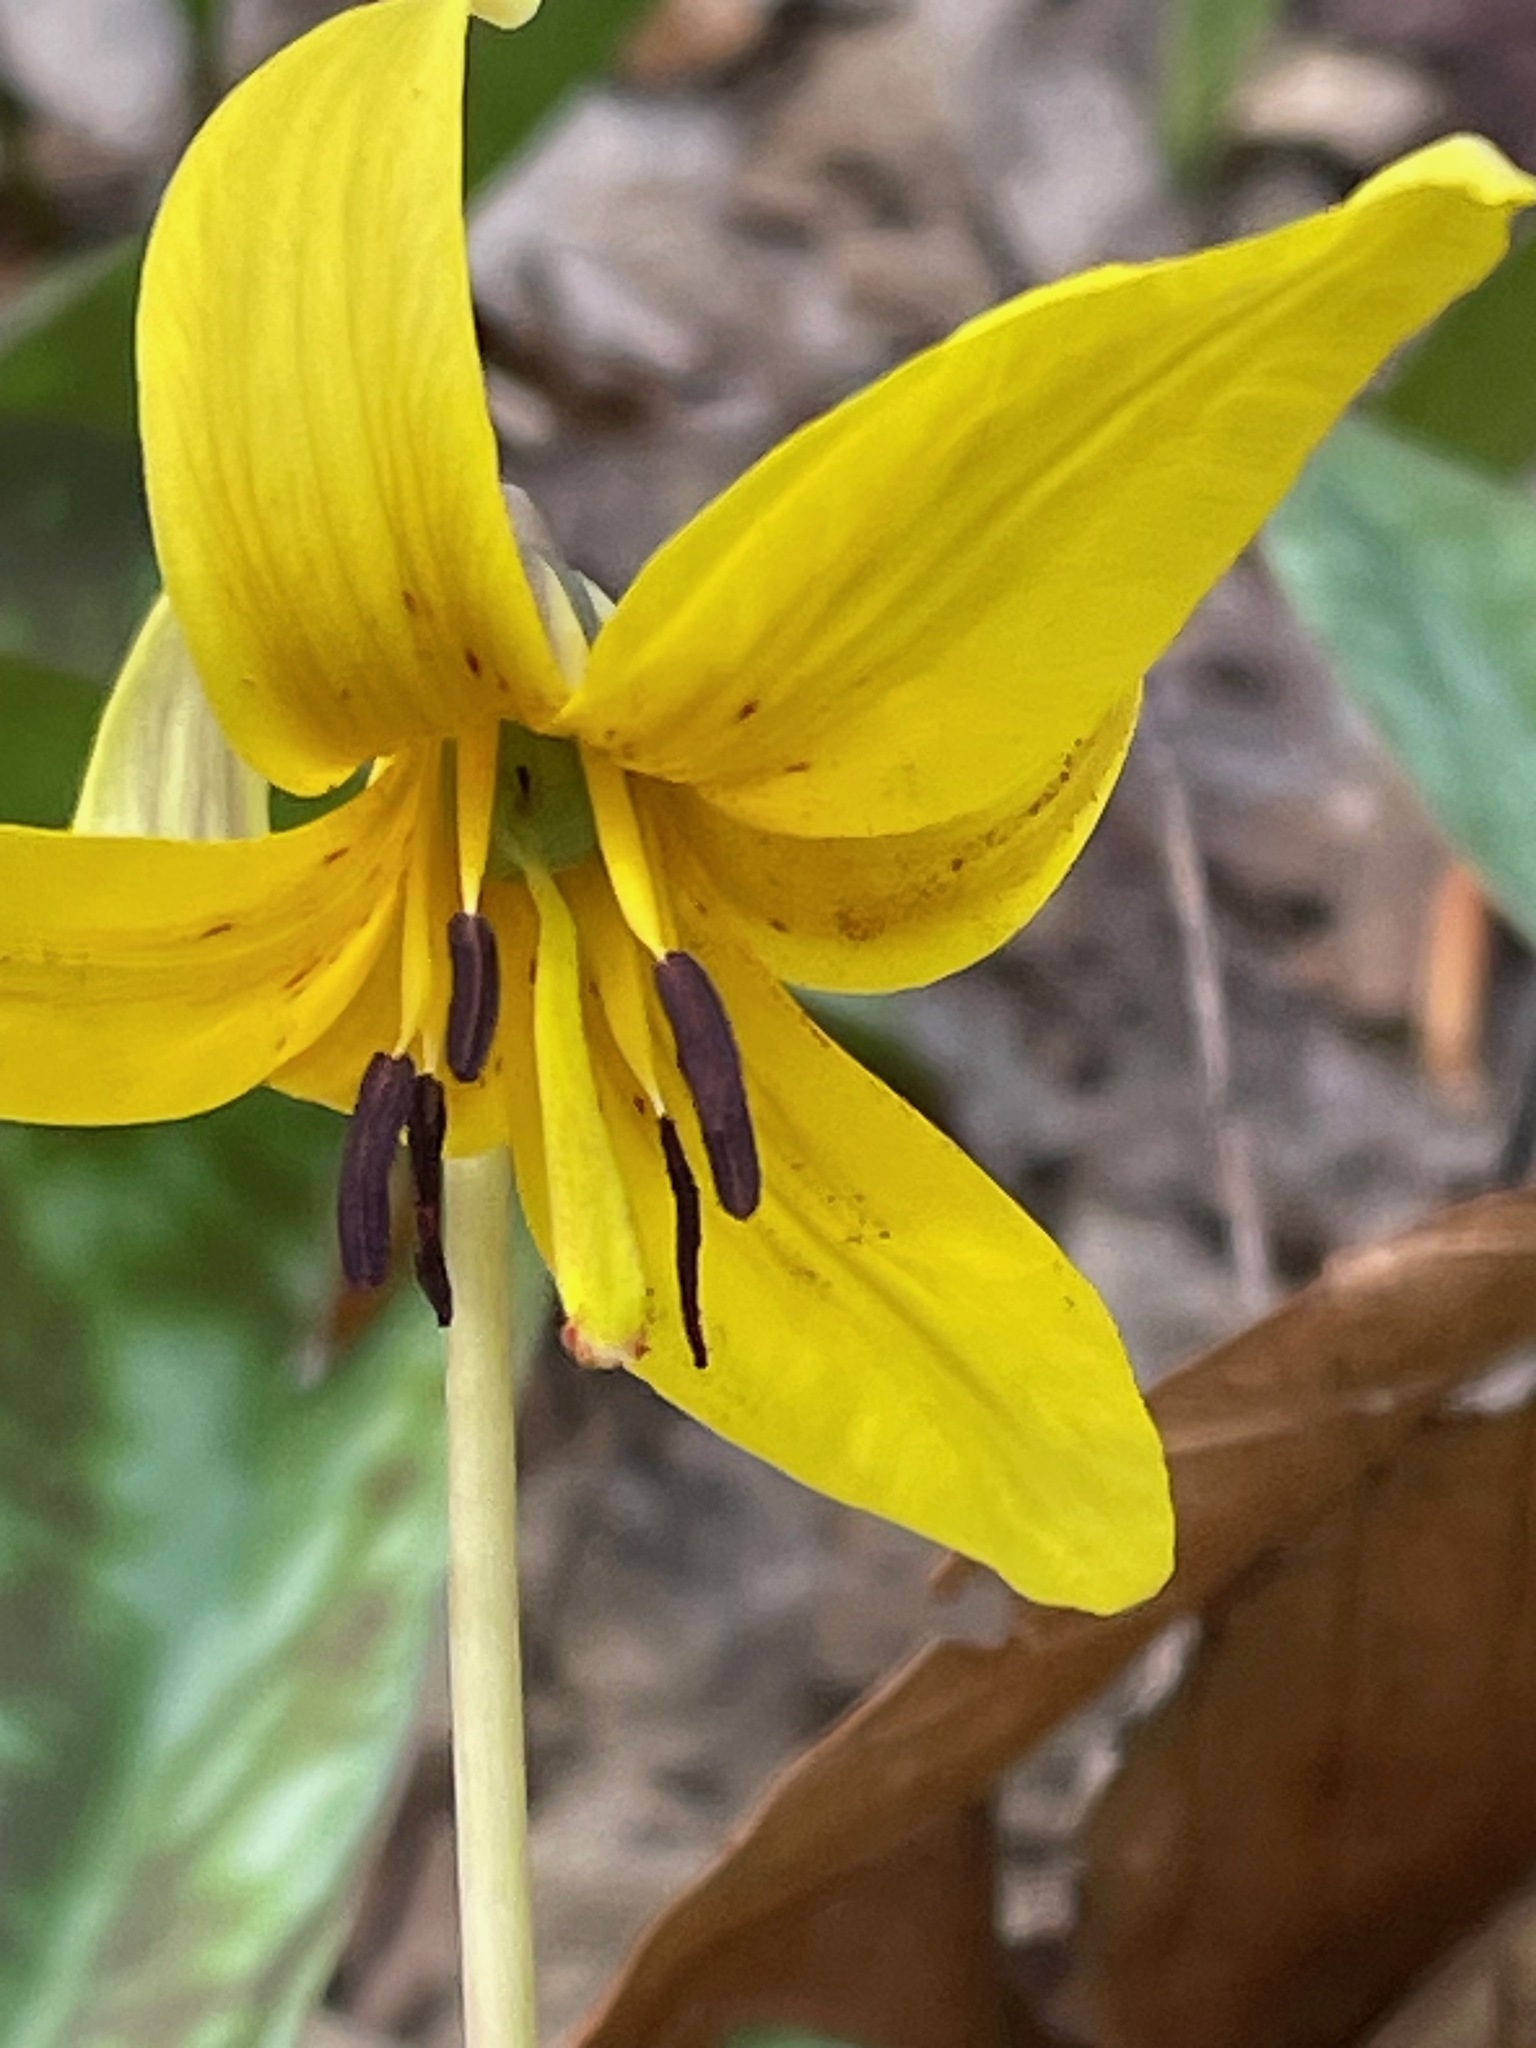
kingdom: Plantae
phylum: Tracheophyta
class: Liliopsida
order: Liliales
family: Liliaceae
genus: Erythronium
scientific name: Erythronium americanum
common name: Yellow adder's-tongue
